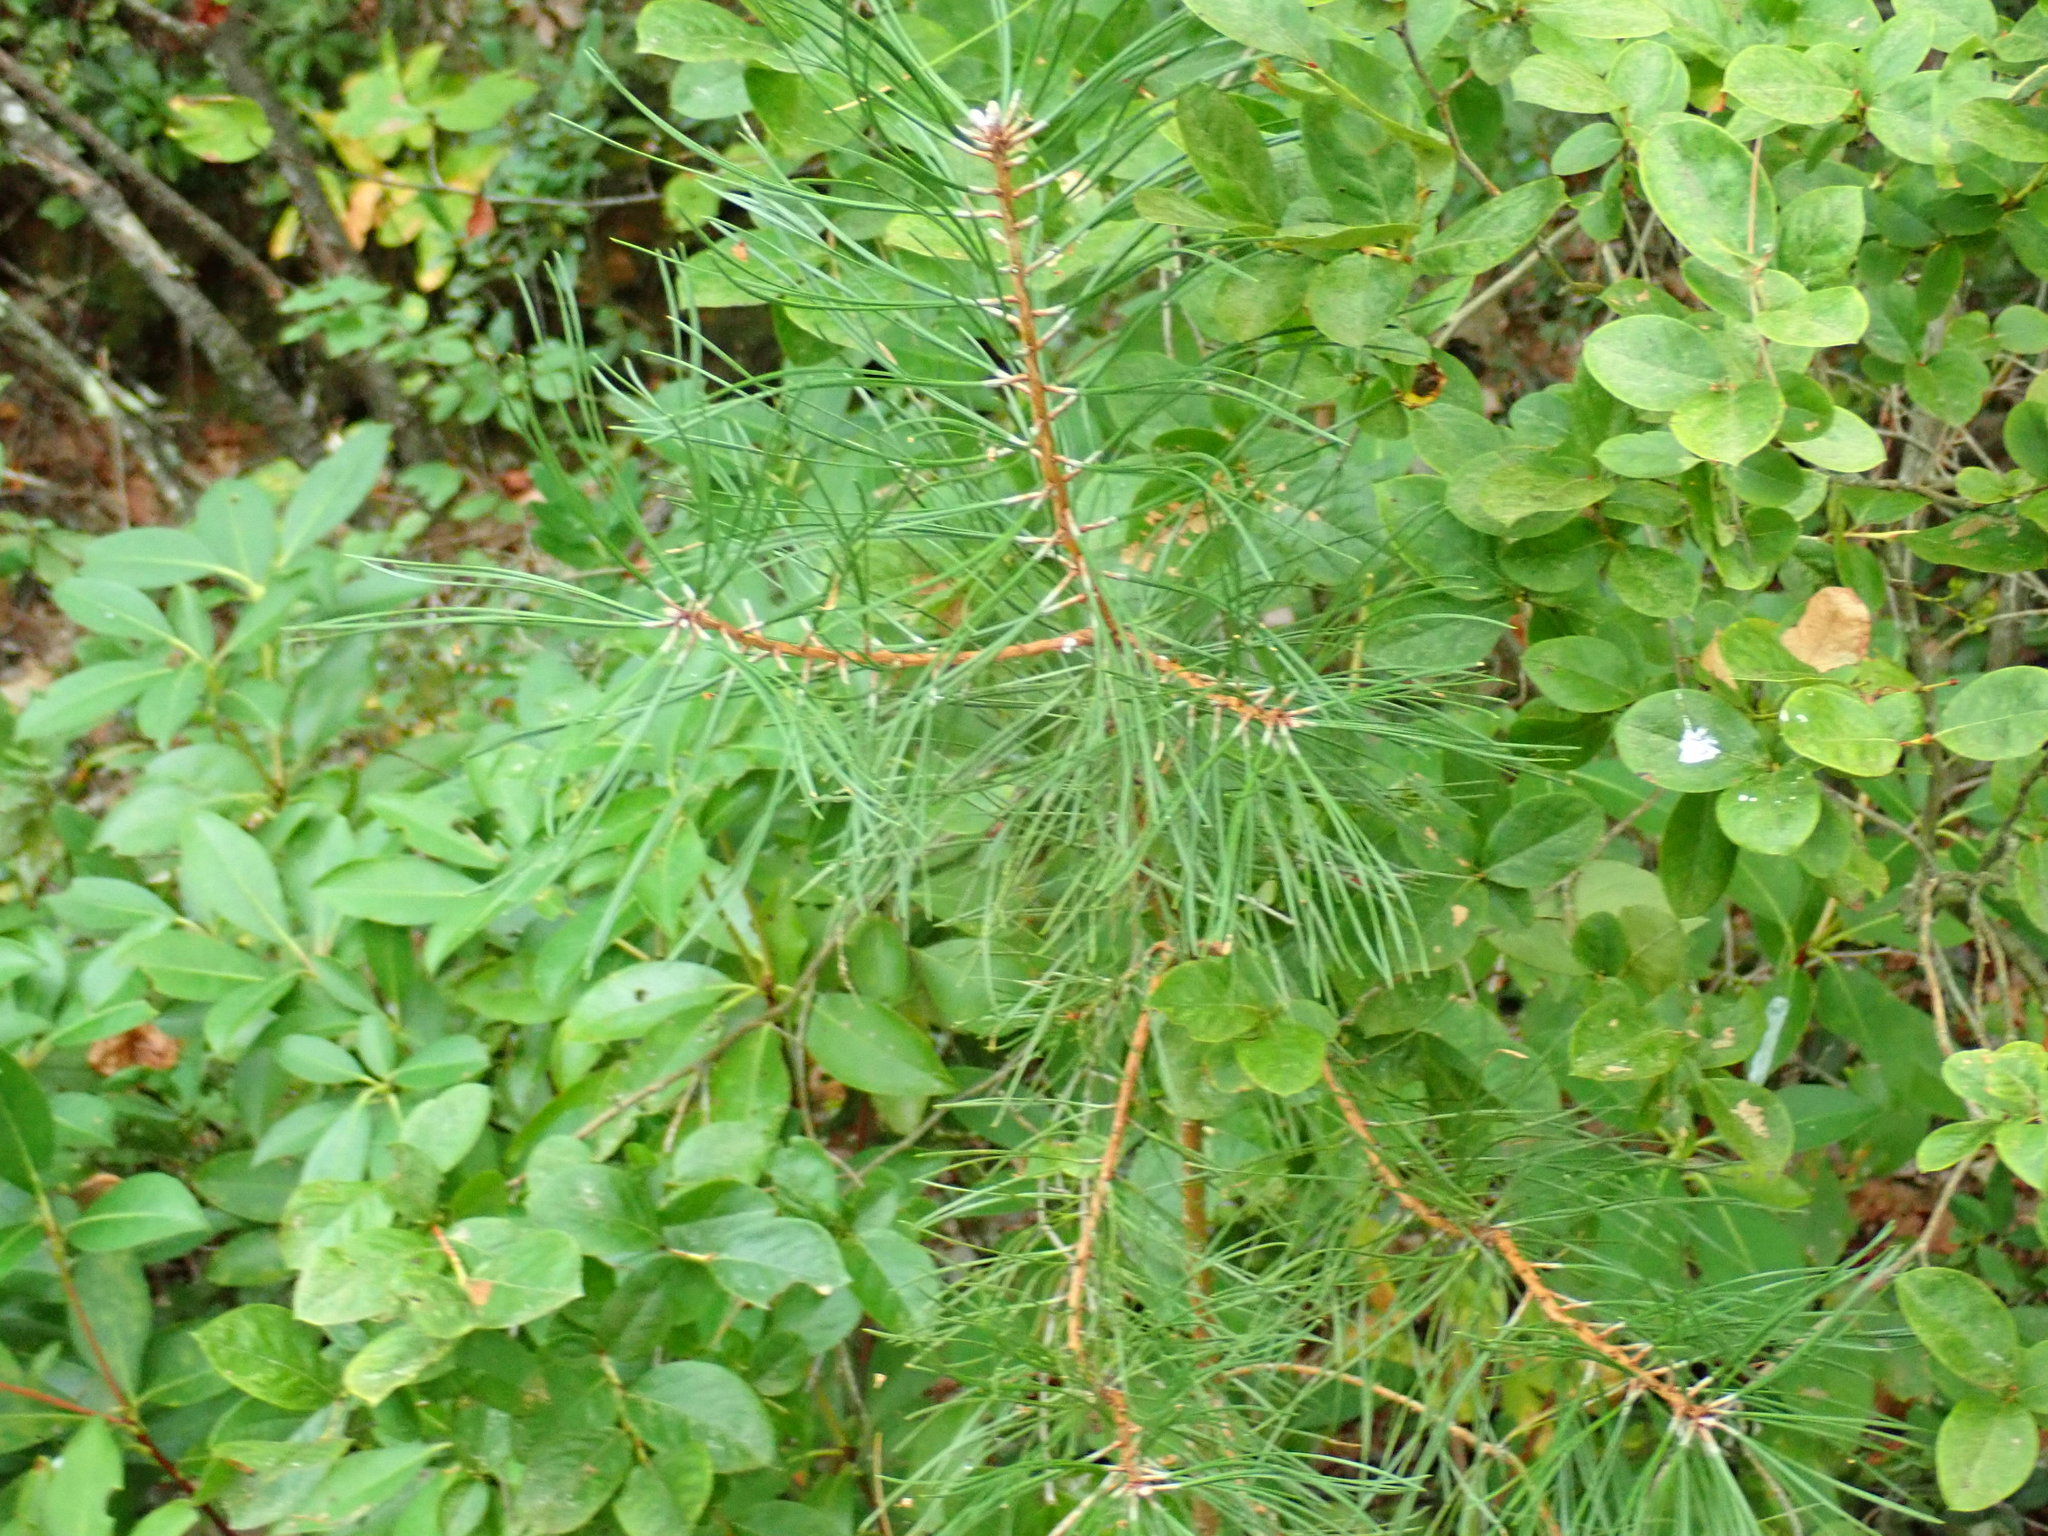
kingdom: Plantae
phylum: Tracheophyta
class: Pinopsida
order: Pinales
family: Pinaceae
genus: Pinus
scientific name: Pinus rigida
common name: Pitch pine
